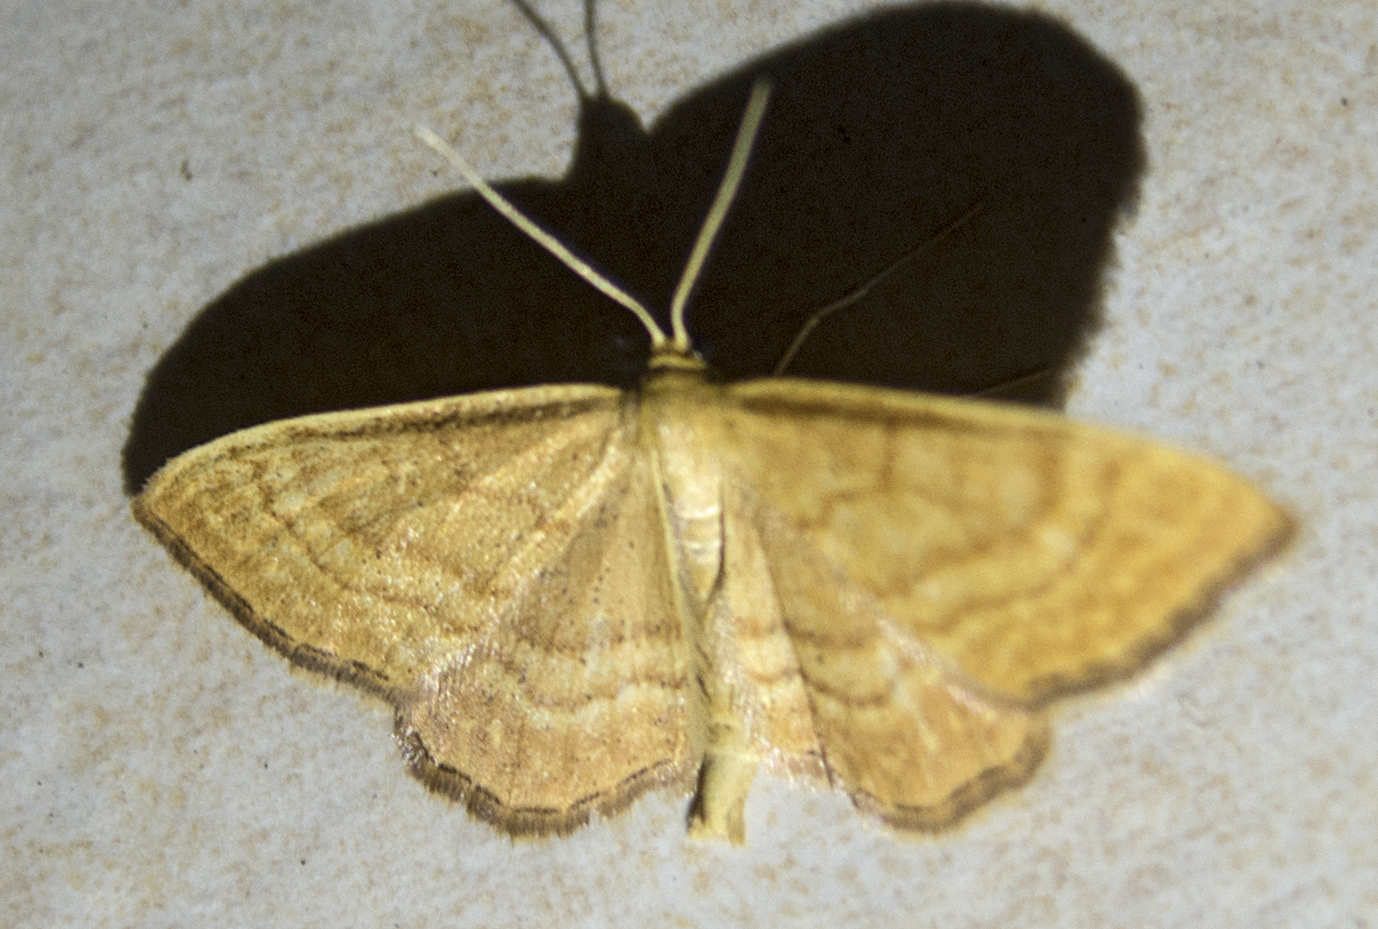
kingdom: Animalia
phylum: Arthropoda
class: Insecta
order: Lepidoptera
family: Geometridae
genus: Idaea
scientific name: Idaea ochrata
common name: Bright wave
